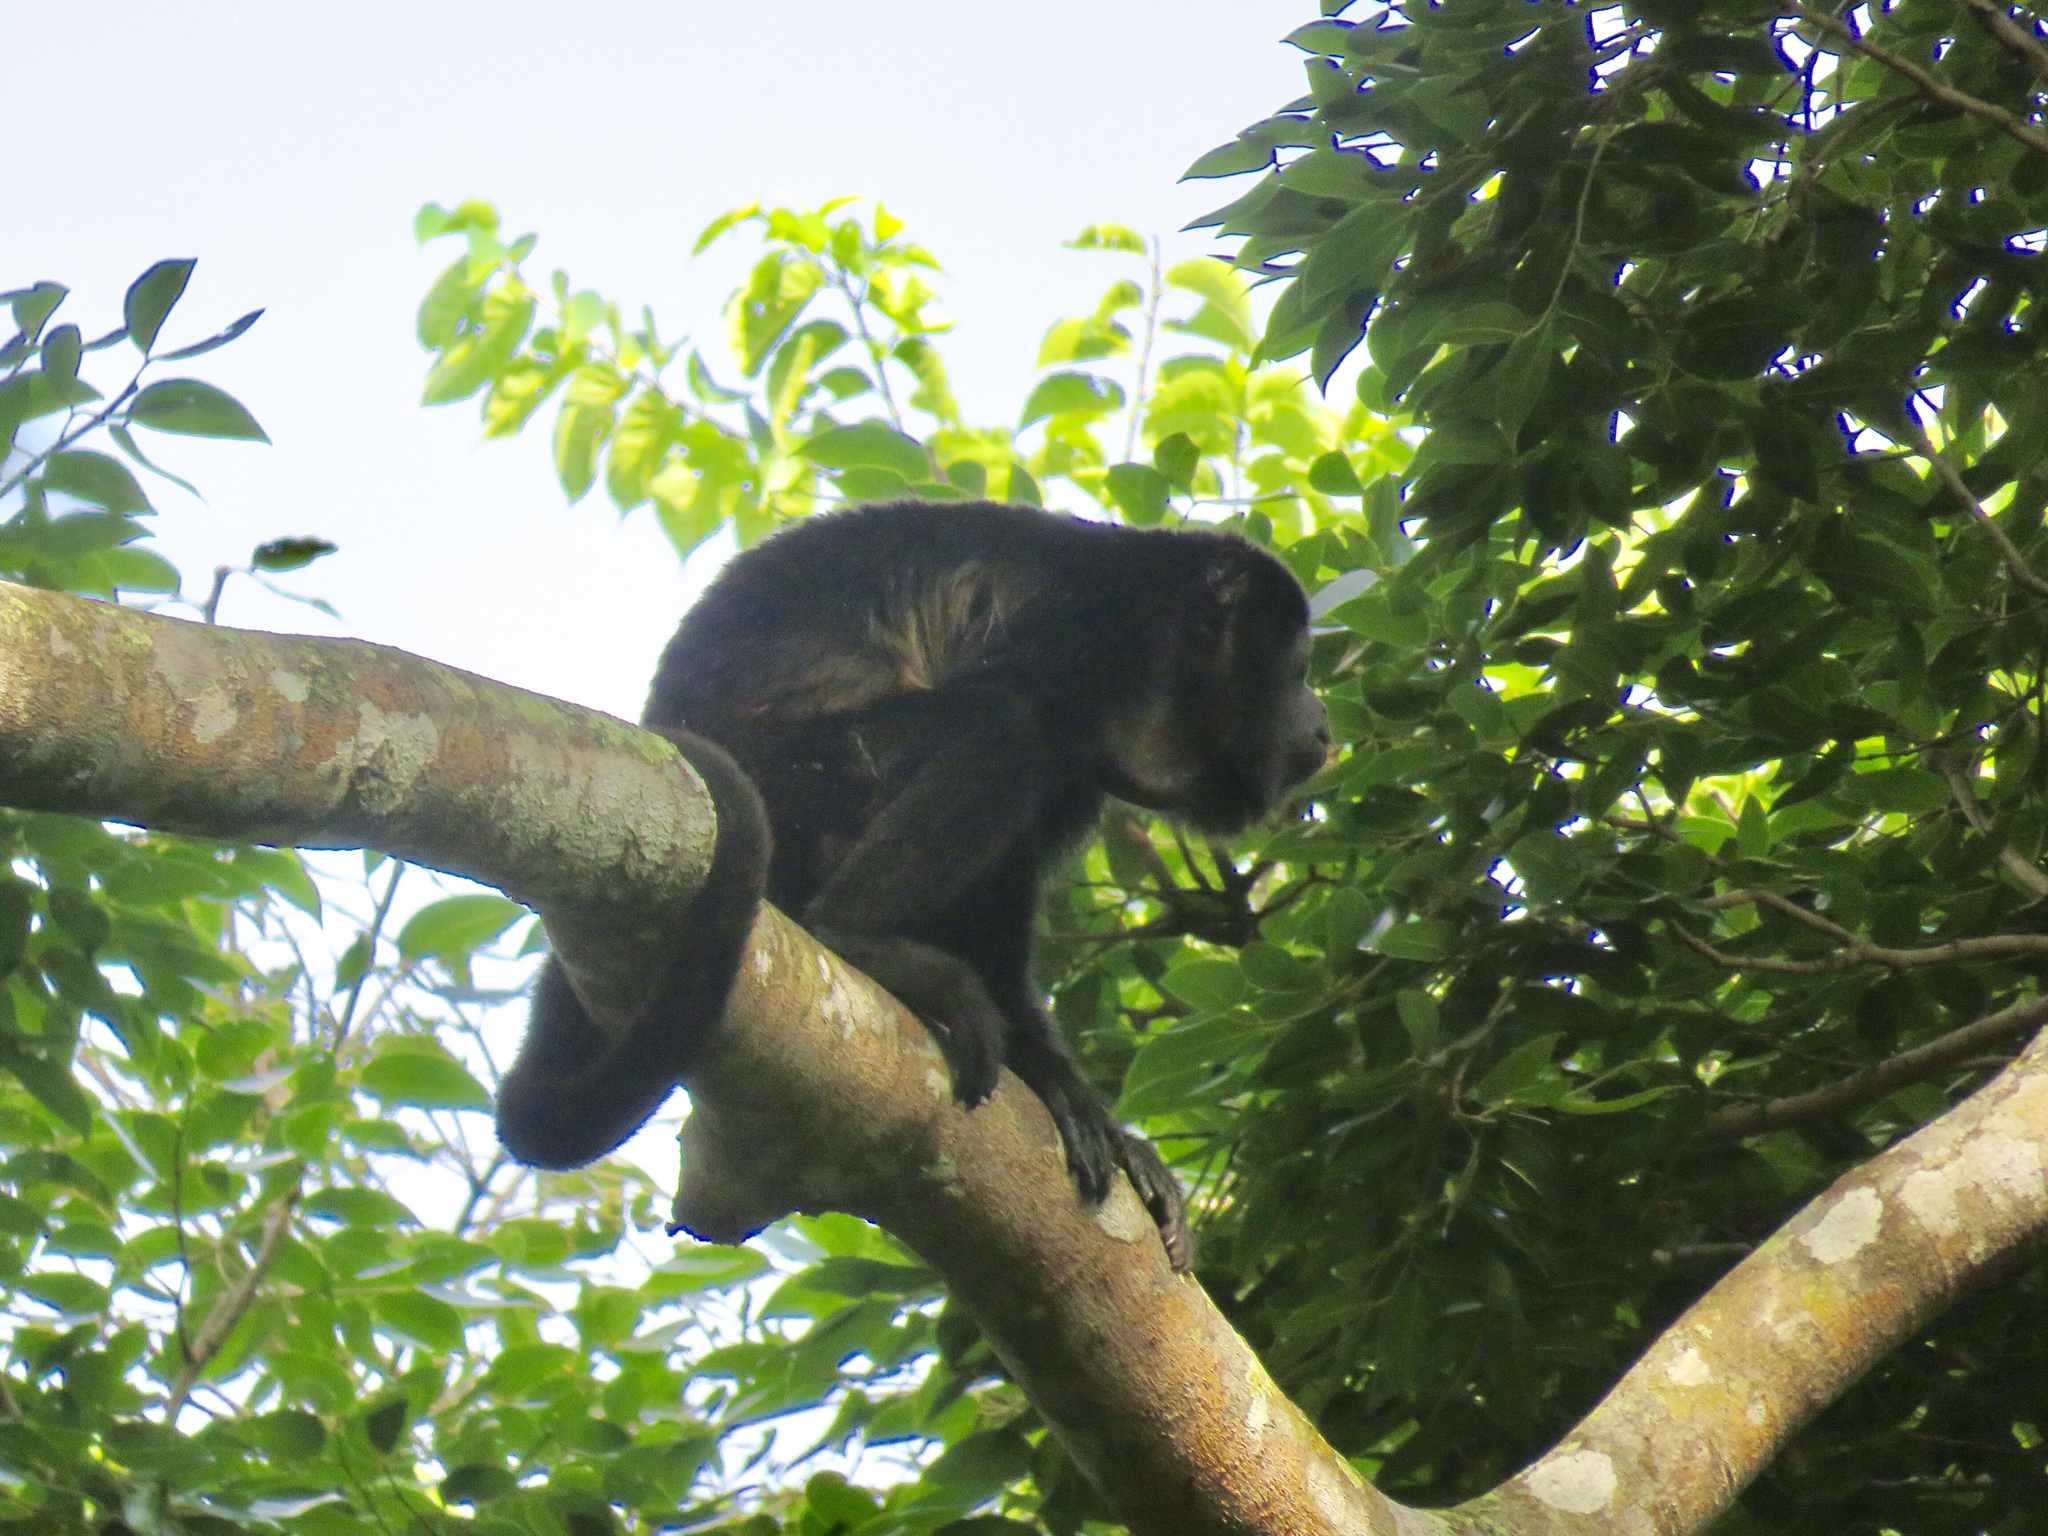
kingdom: Animalia
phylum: Chordata
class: Mammalia
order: Primates
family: Atelidae
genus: Alouatta
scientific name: Alouatta palliata
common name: Mantled howler
